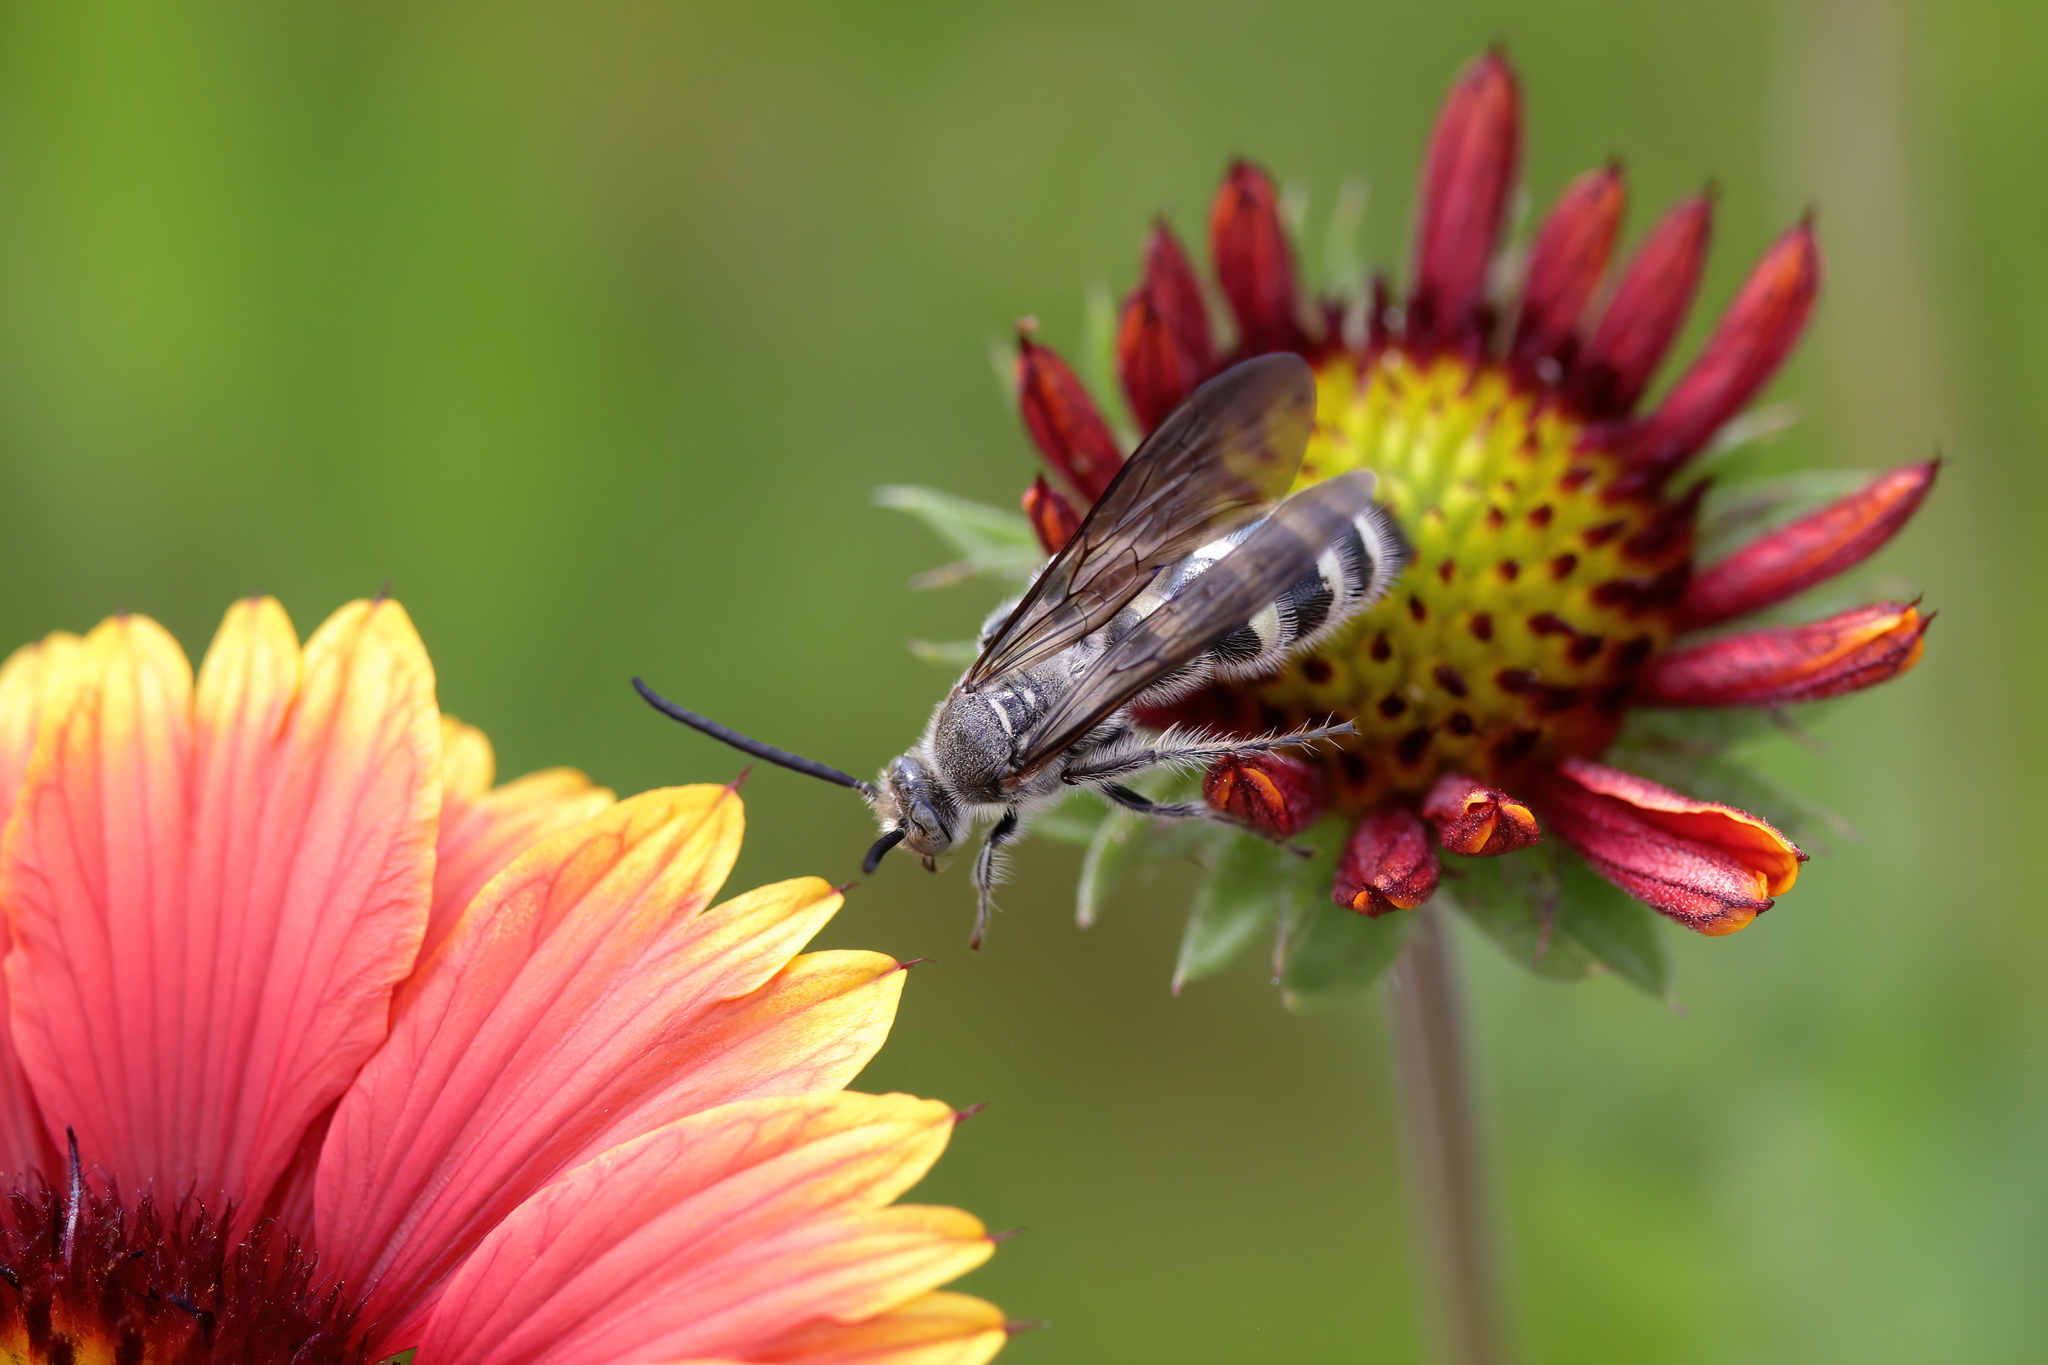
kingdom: Animalia
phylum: Arthropoda
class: Insecta
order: Hymenoptera
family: Scoliidae
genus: Dielis
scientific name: Dielis
